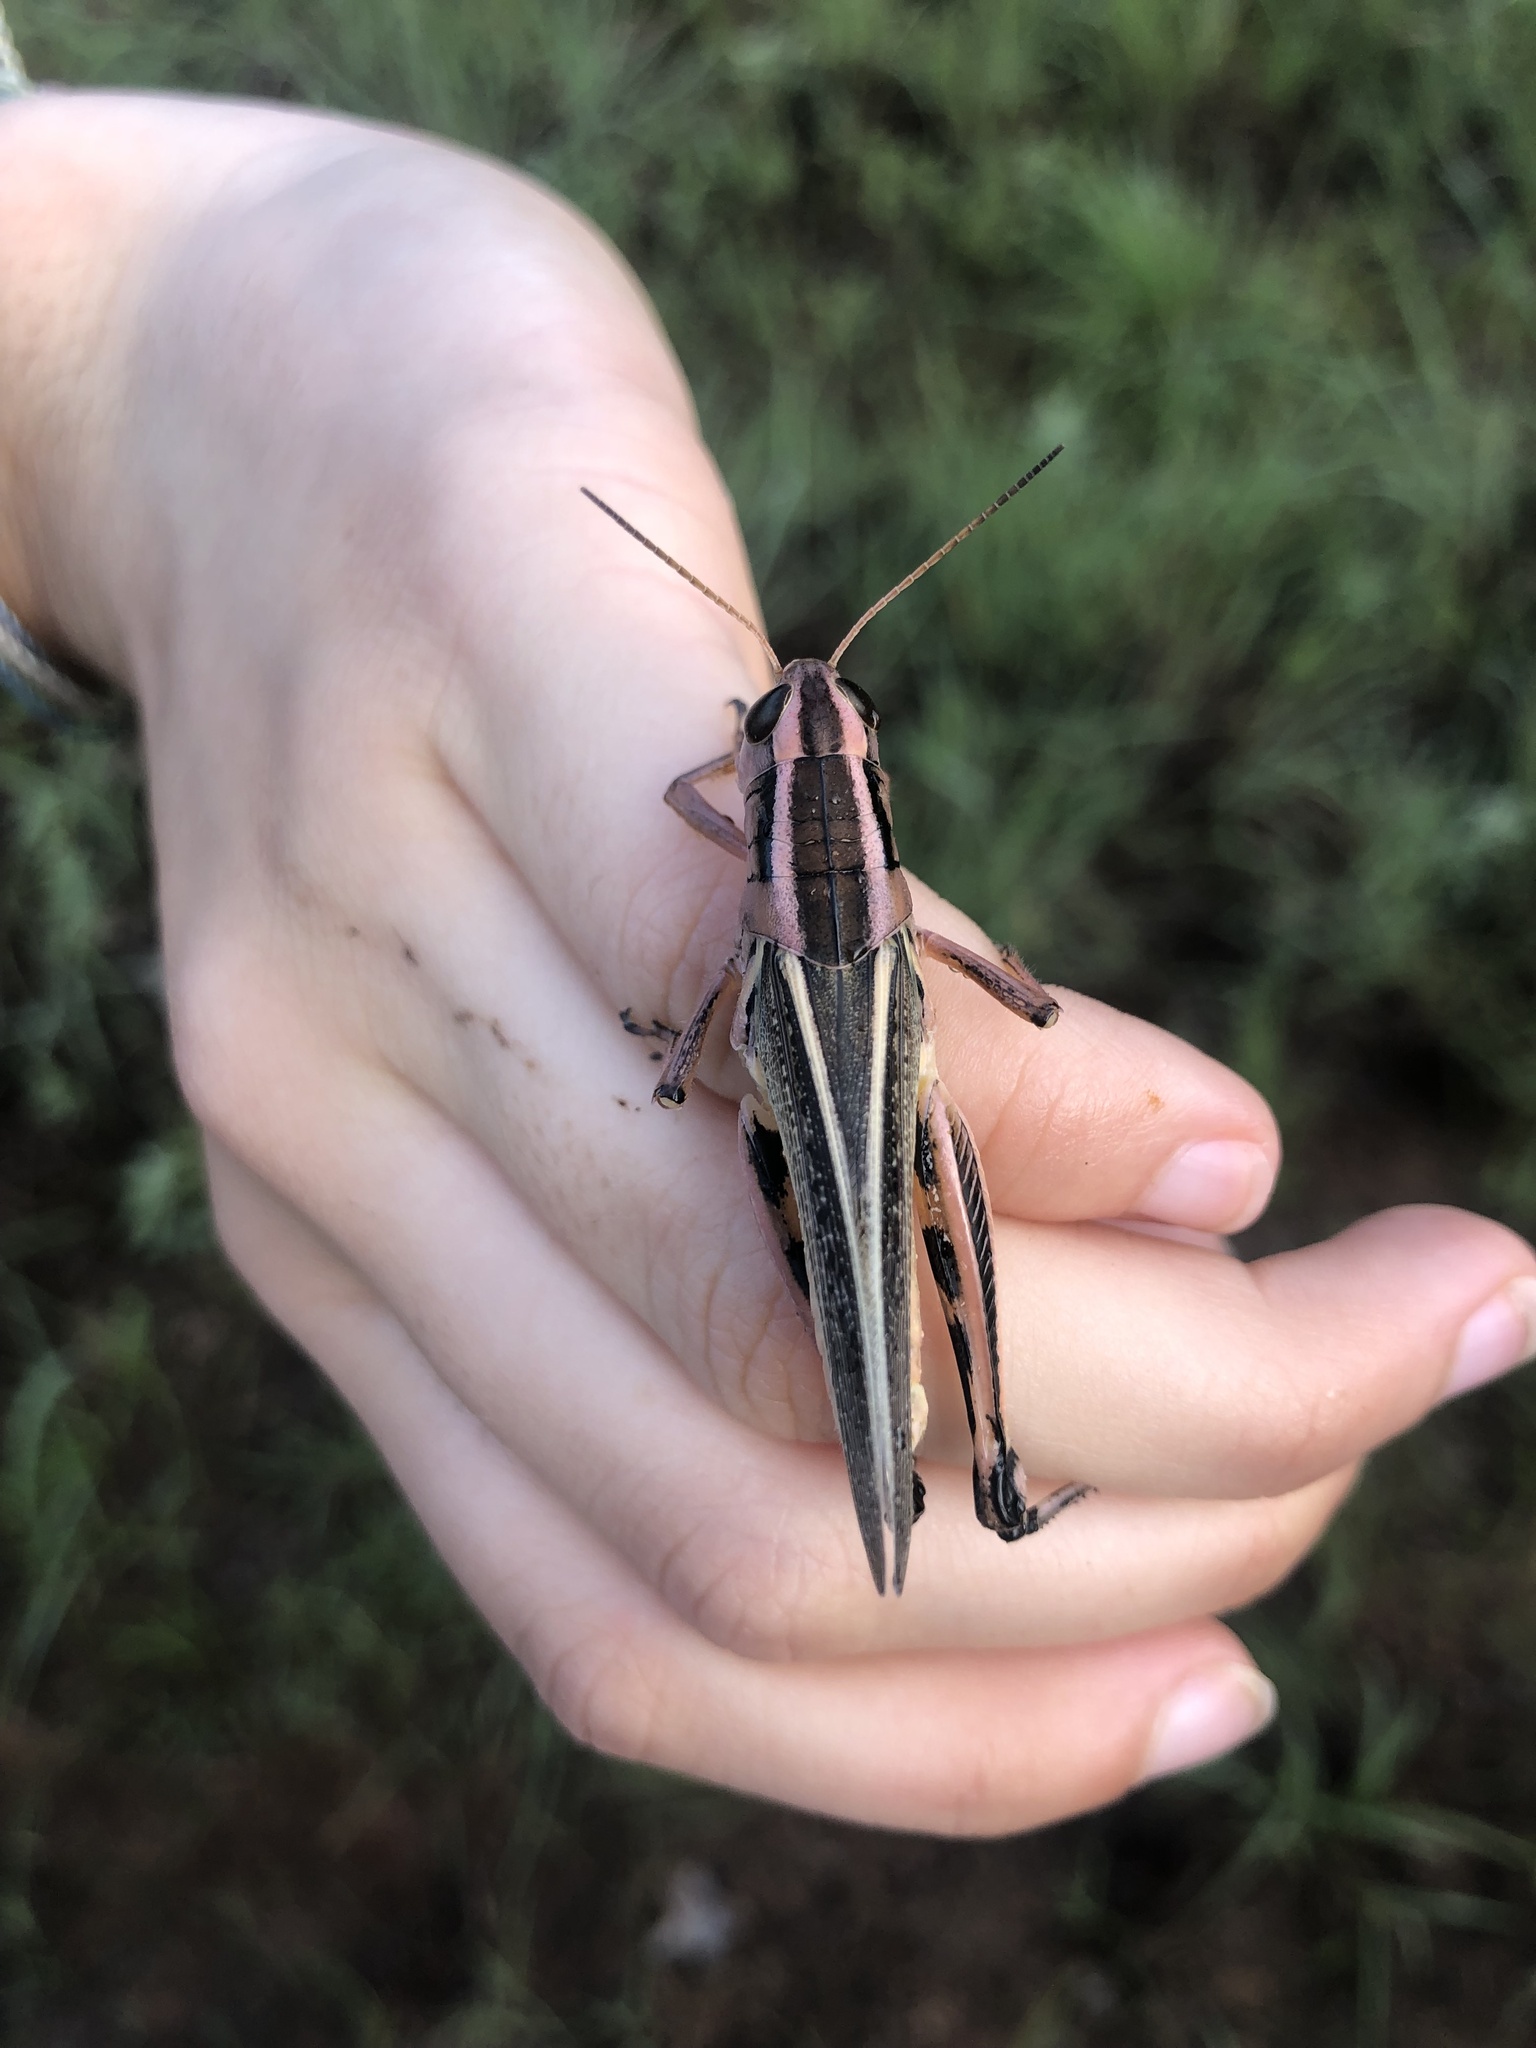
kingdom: Animalia
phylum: Arthropoda
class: Insecta
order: Orthoptera
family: Acrididae
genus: Melanoplus
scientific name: Melanoplus bivittatus
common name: Two-striped grasshopper
